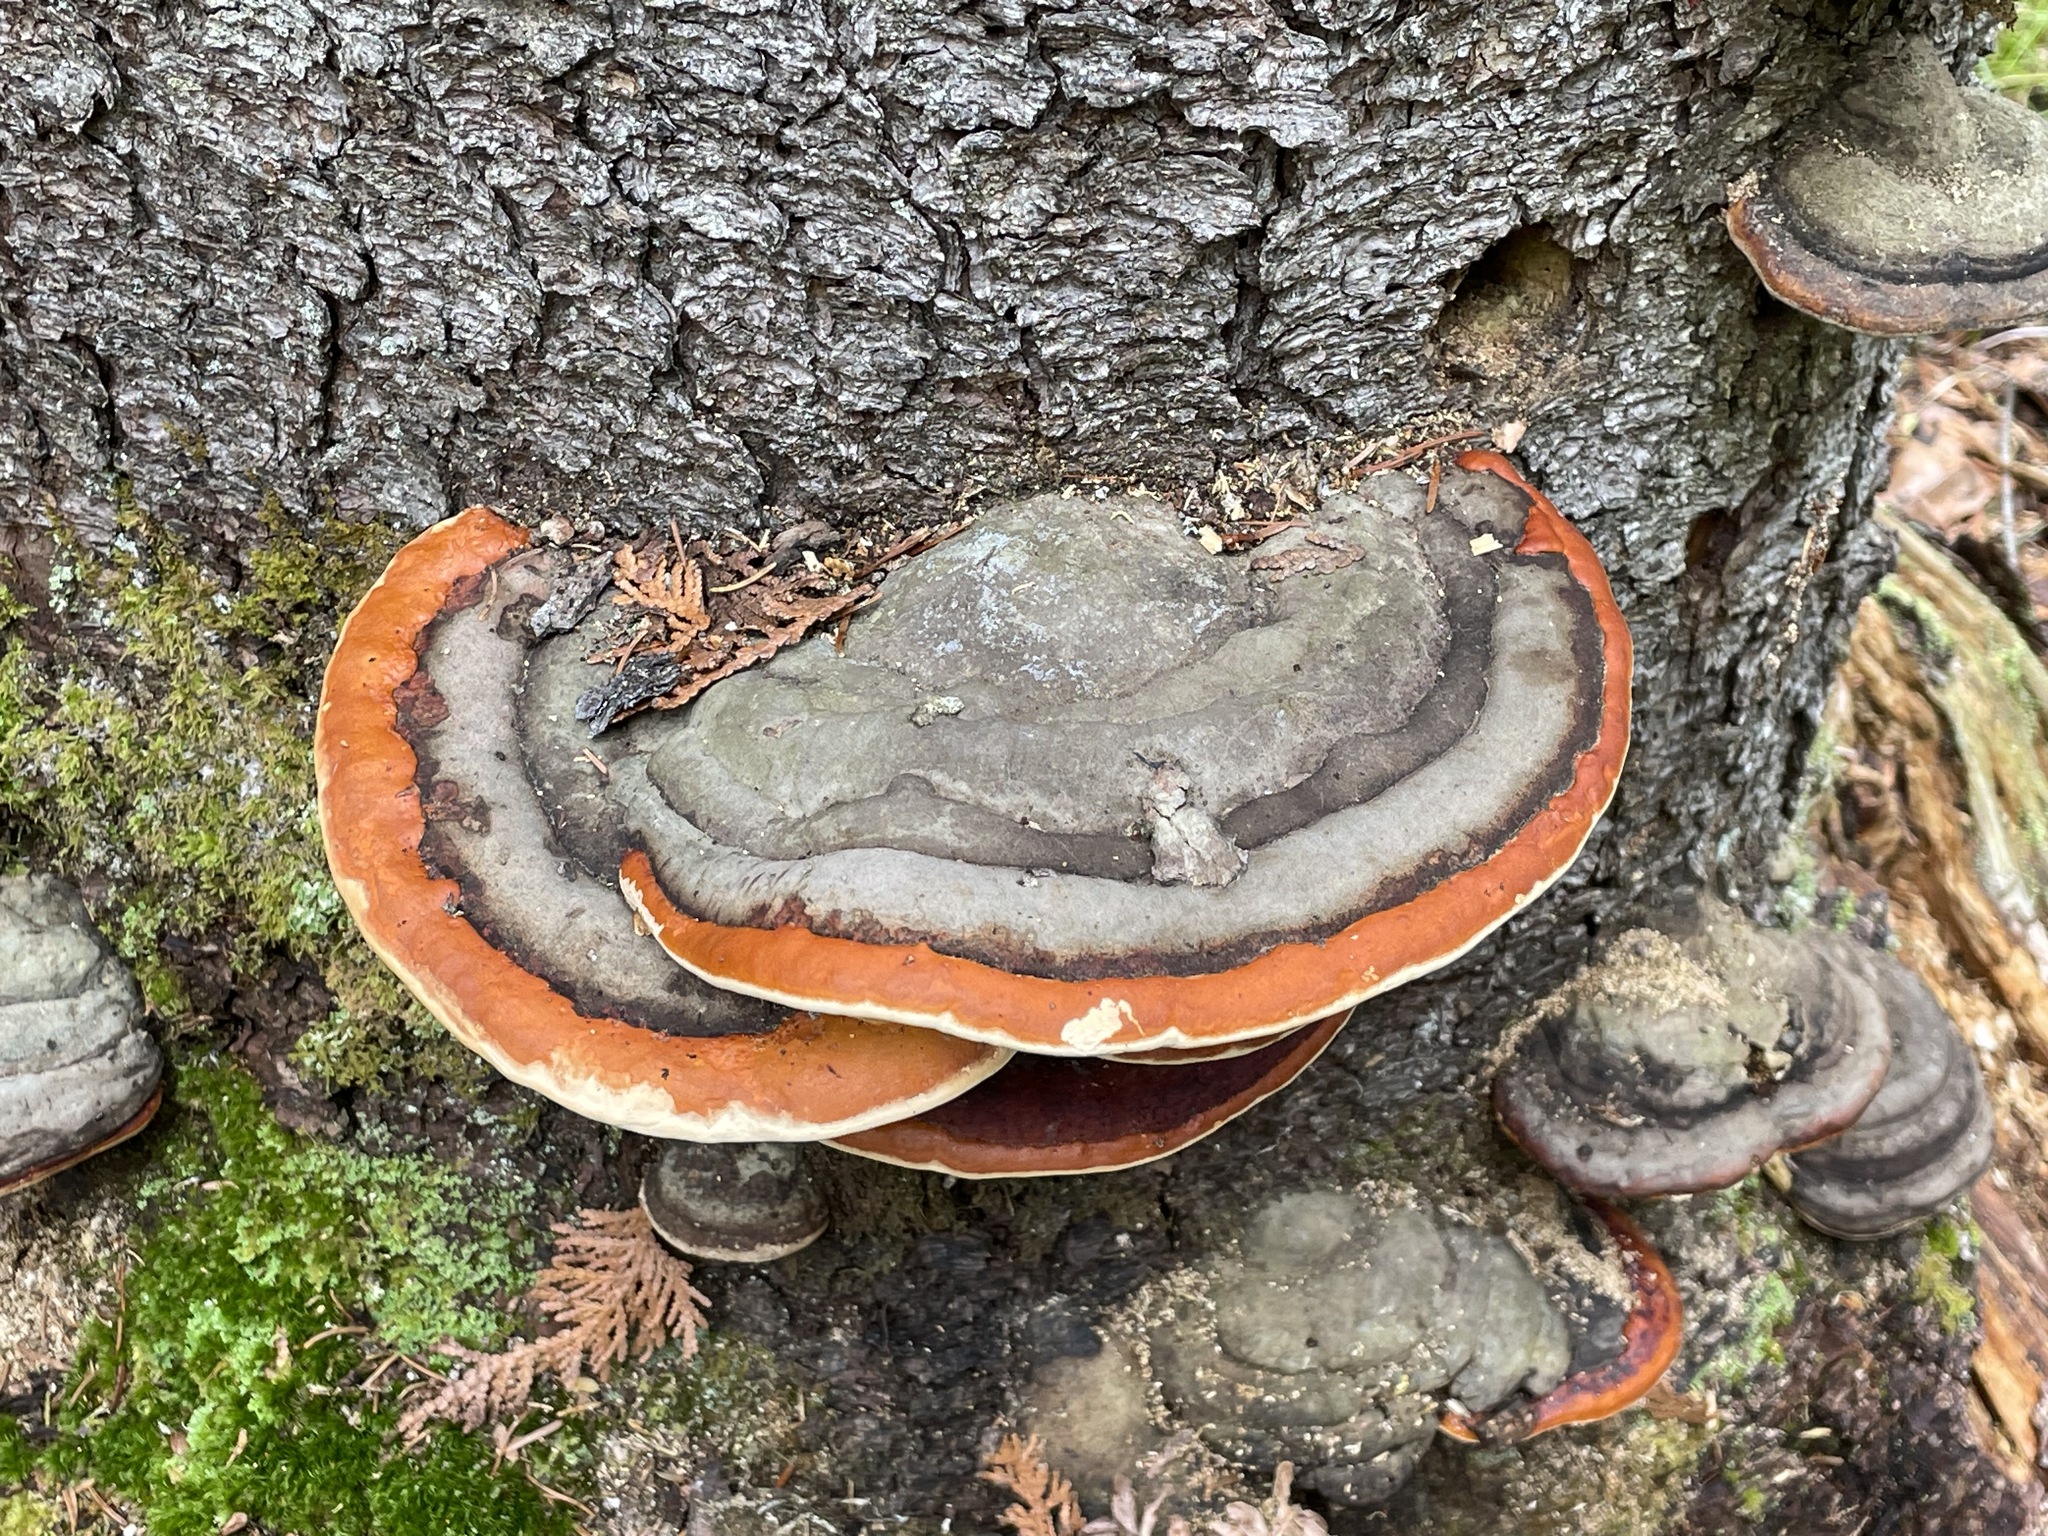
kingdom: Fungi
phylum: Basidiomycota
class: Agaricomycetes
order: Polyporales
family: Fomitopsidaceae
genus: Fomitopsis
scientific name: Fomitopsis mounceae
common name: Northern red belt
